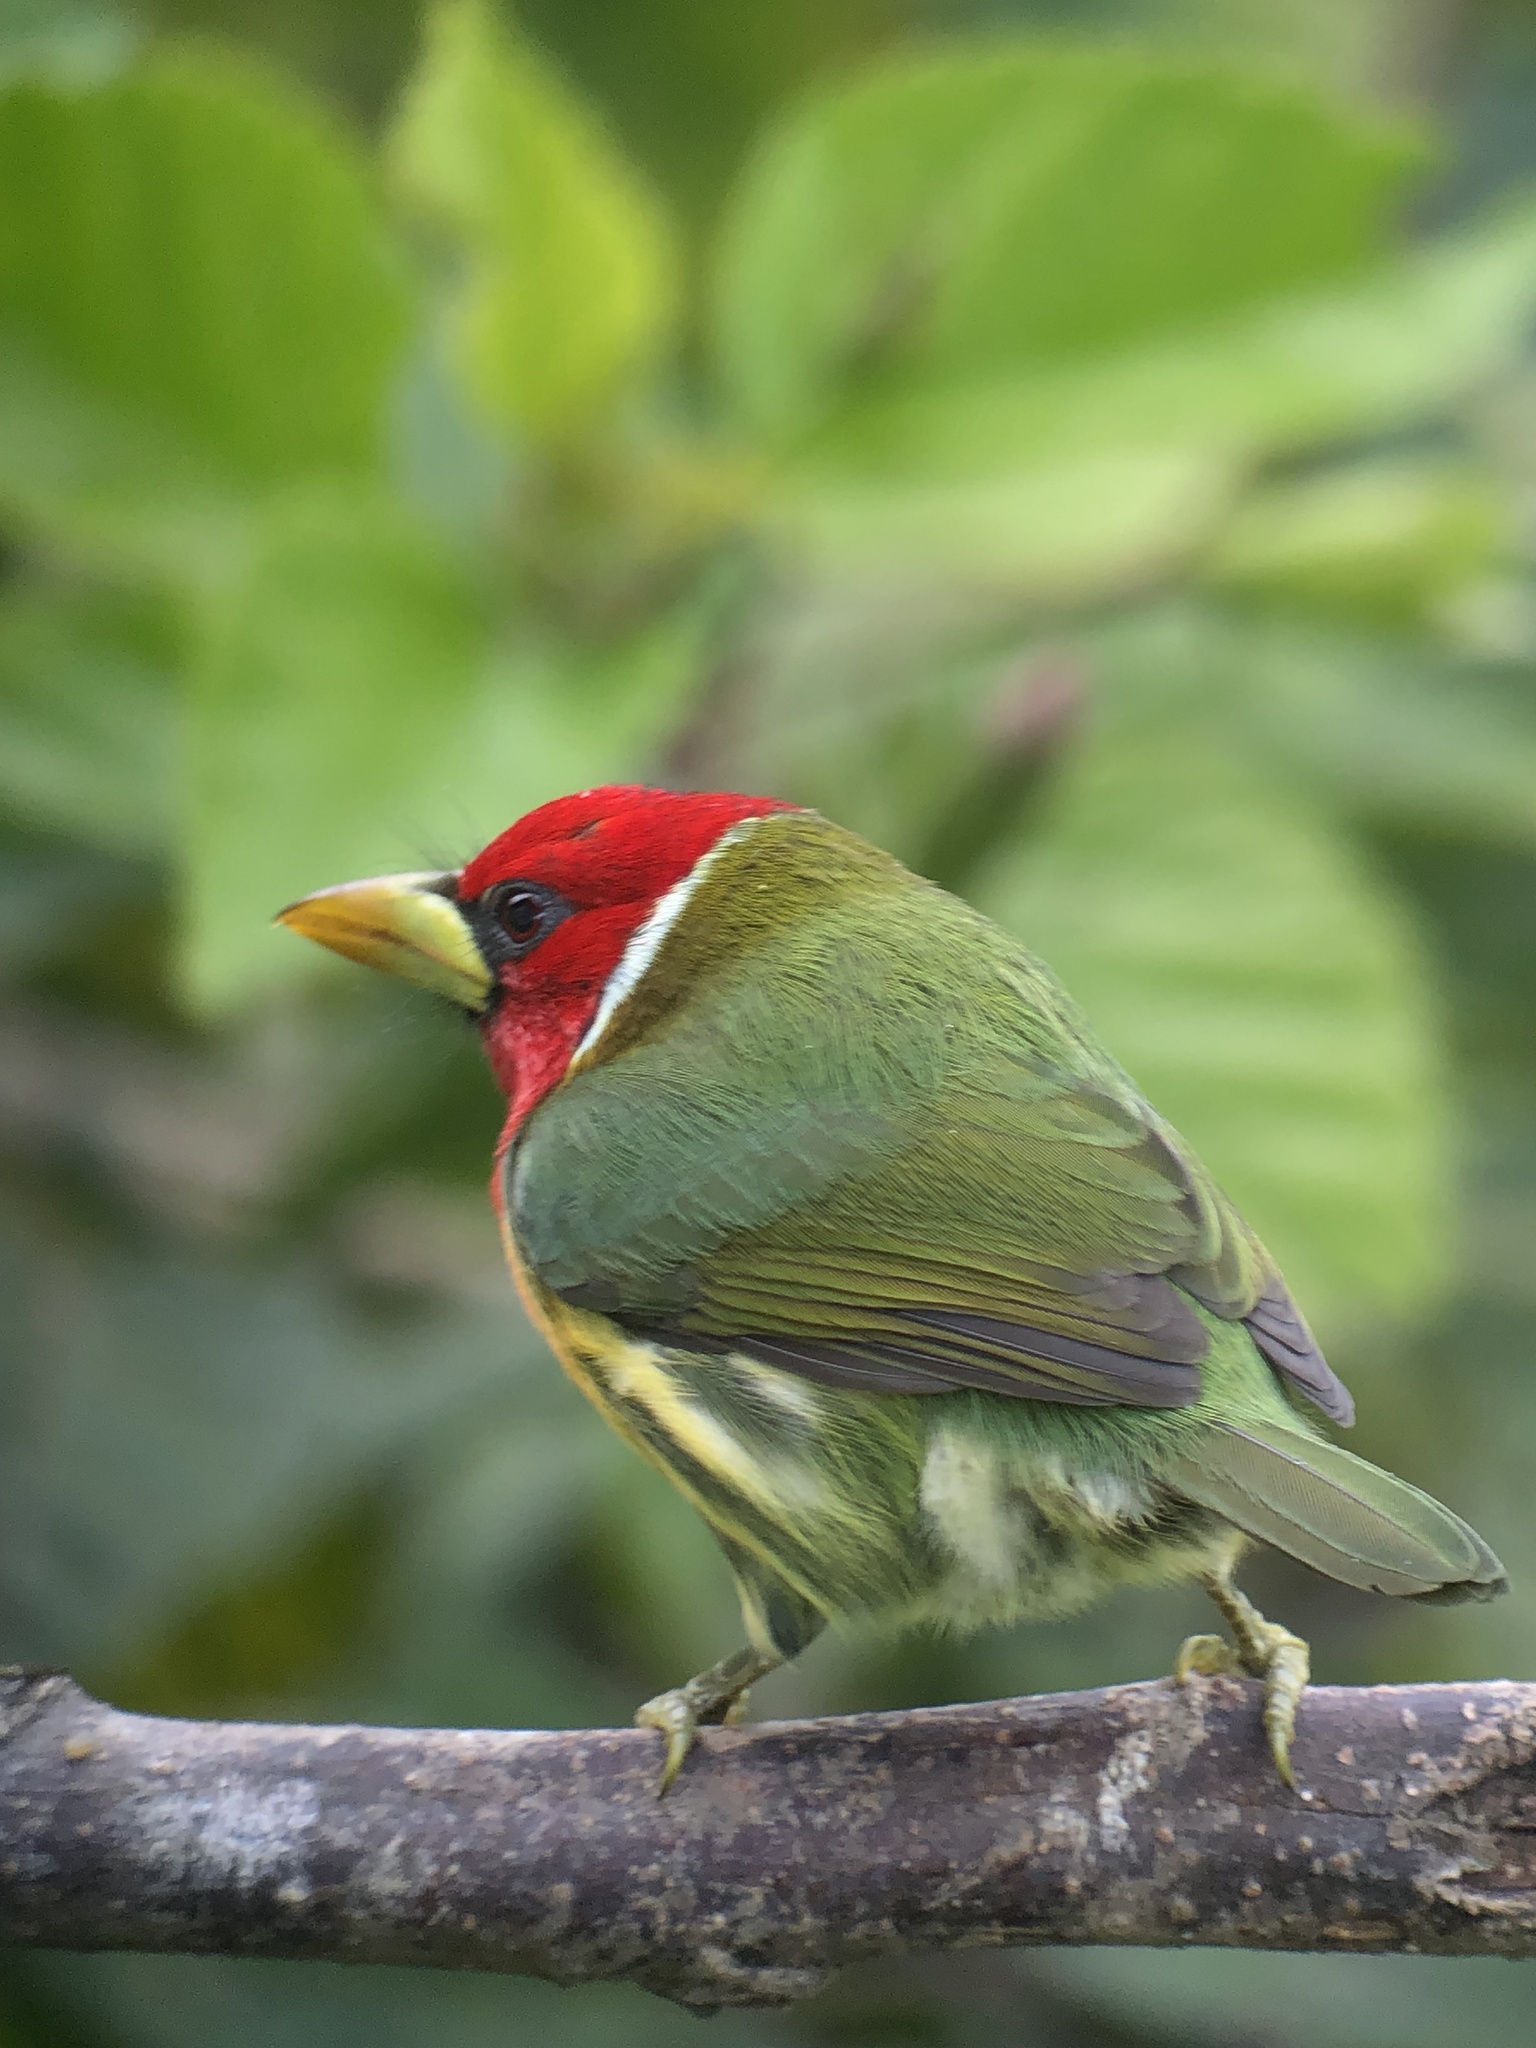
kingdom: Animalia
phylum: Chordata
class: Aves
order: Piciformes
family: Capitonidae
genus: Eubucco
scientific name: Eubucco bourcierii
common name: Red-headed barbet
